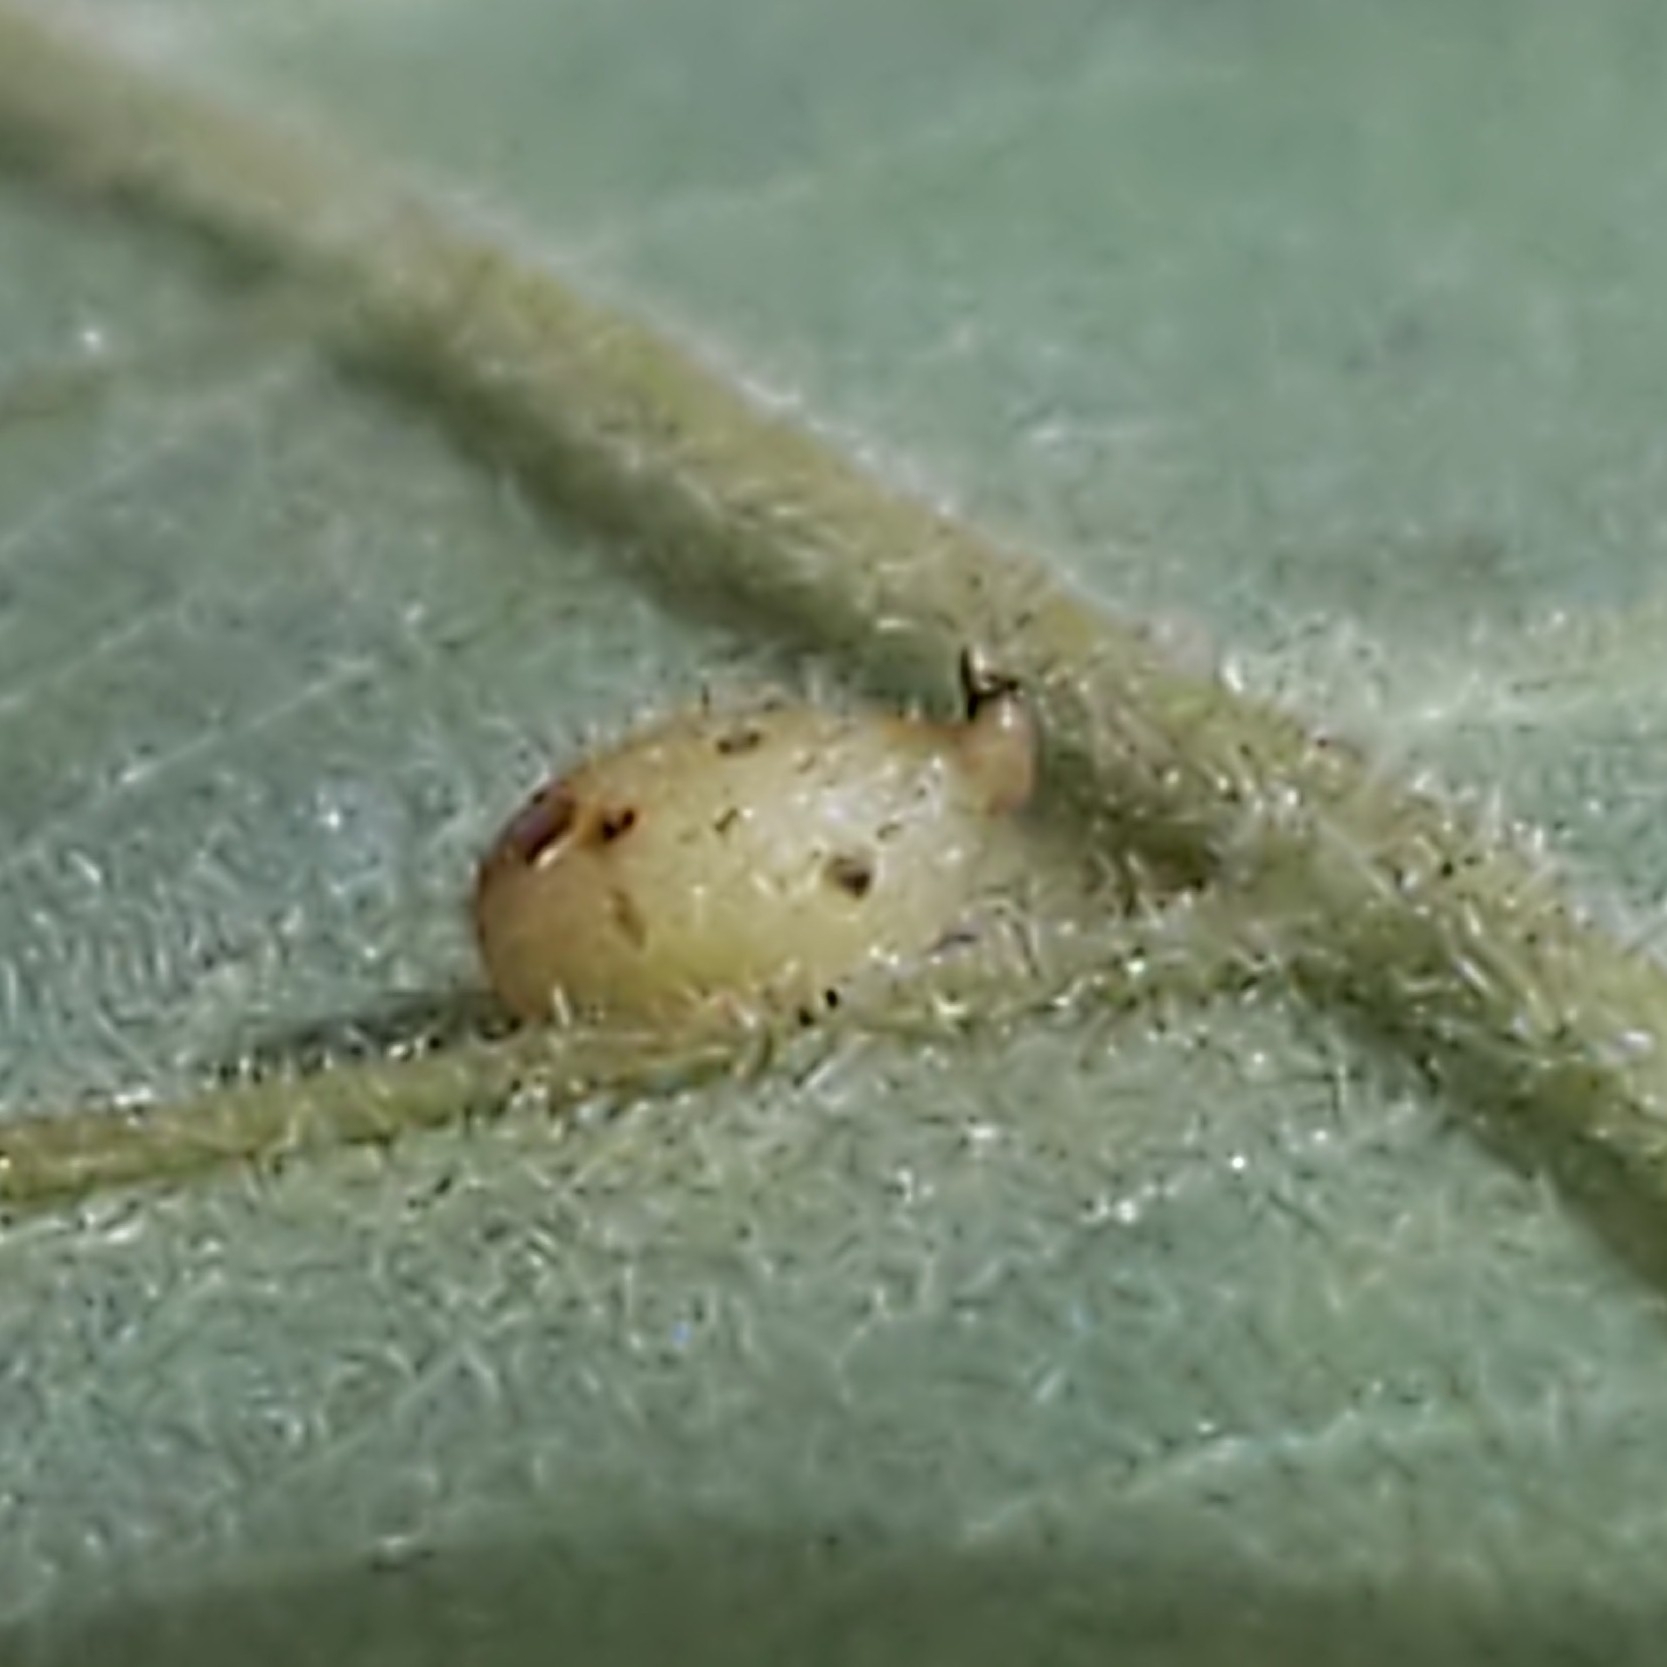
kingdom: Animalia
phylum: Arthropoda
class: Insecta
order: Diptera
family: Cecidomyiidae
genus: Caryomyia
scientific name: Caryomyia eumaris
